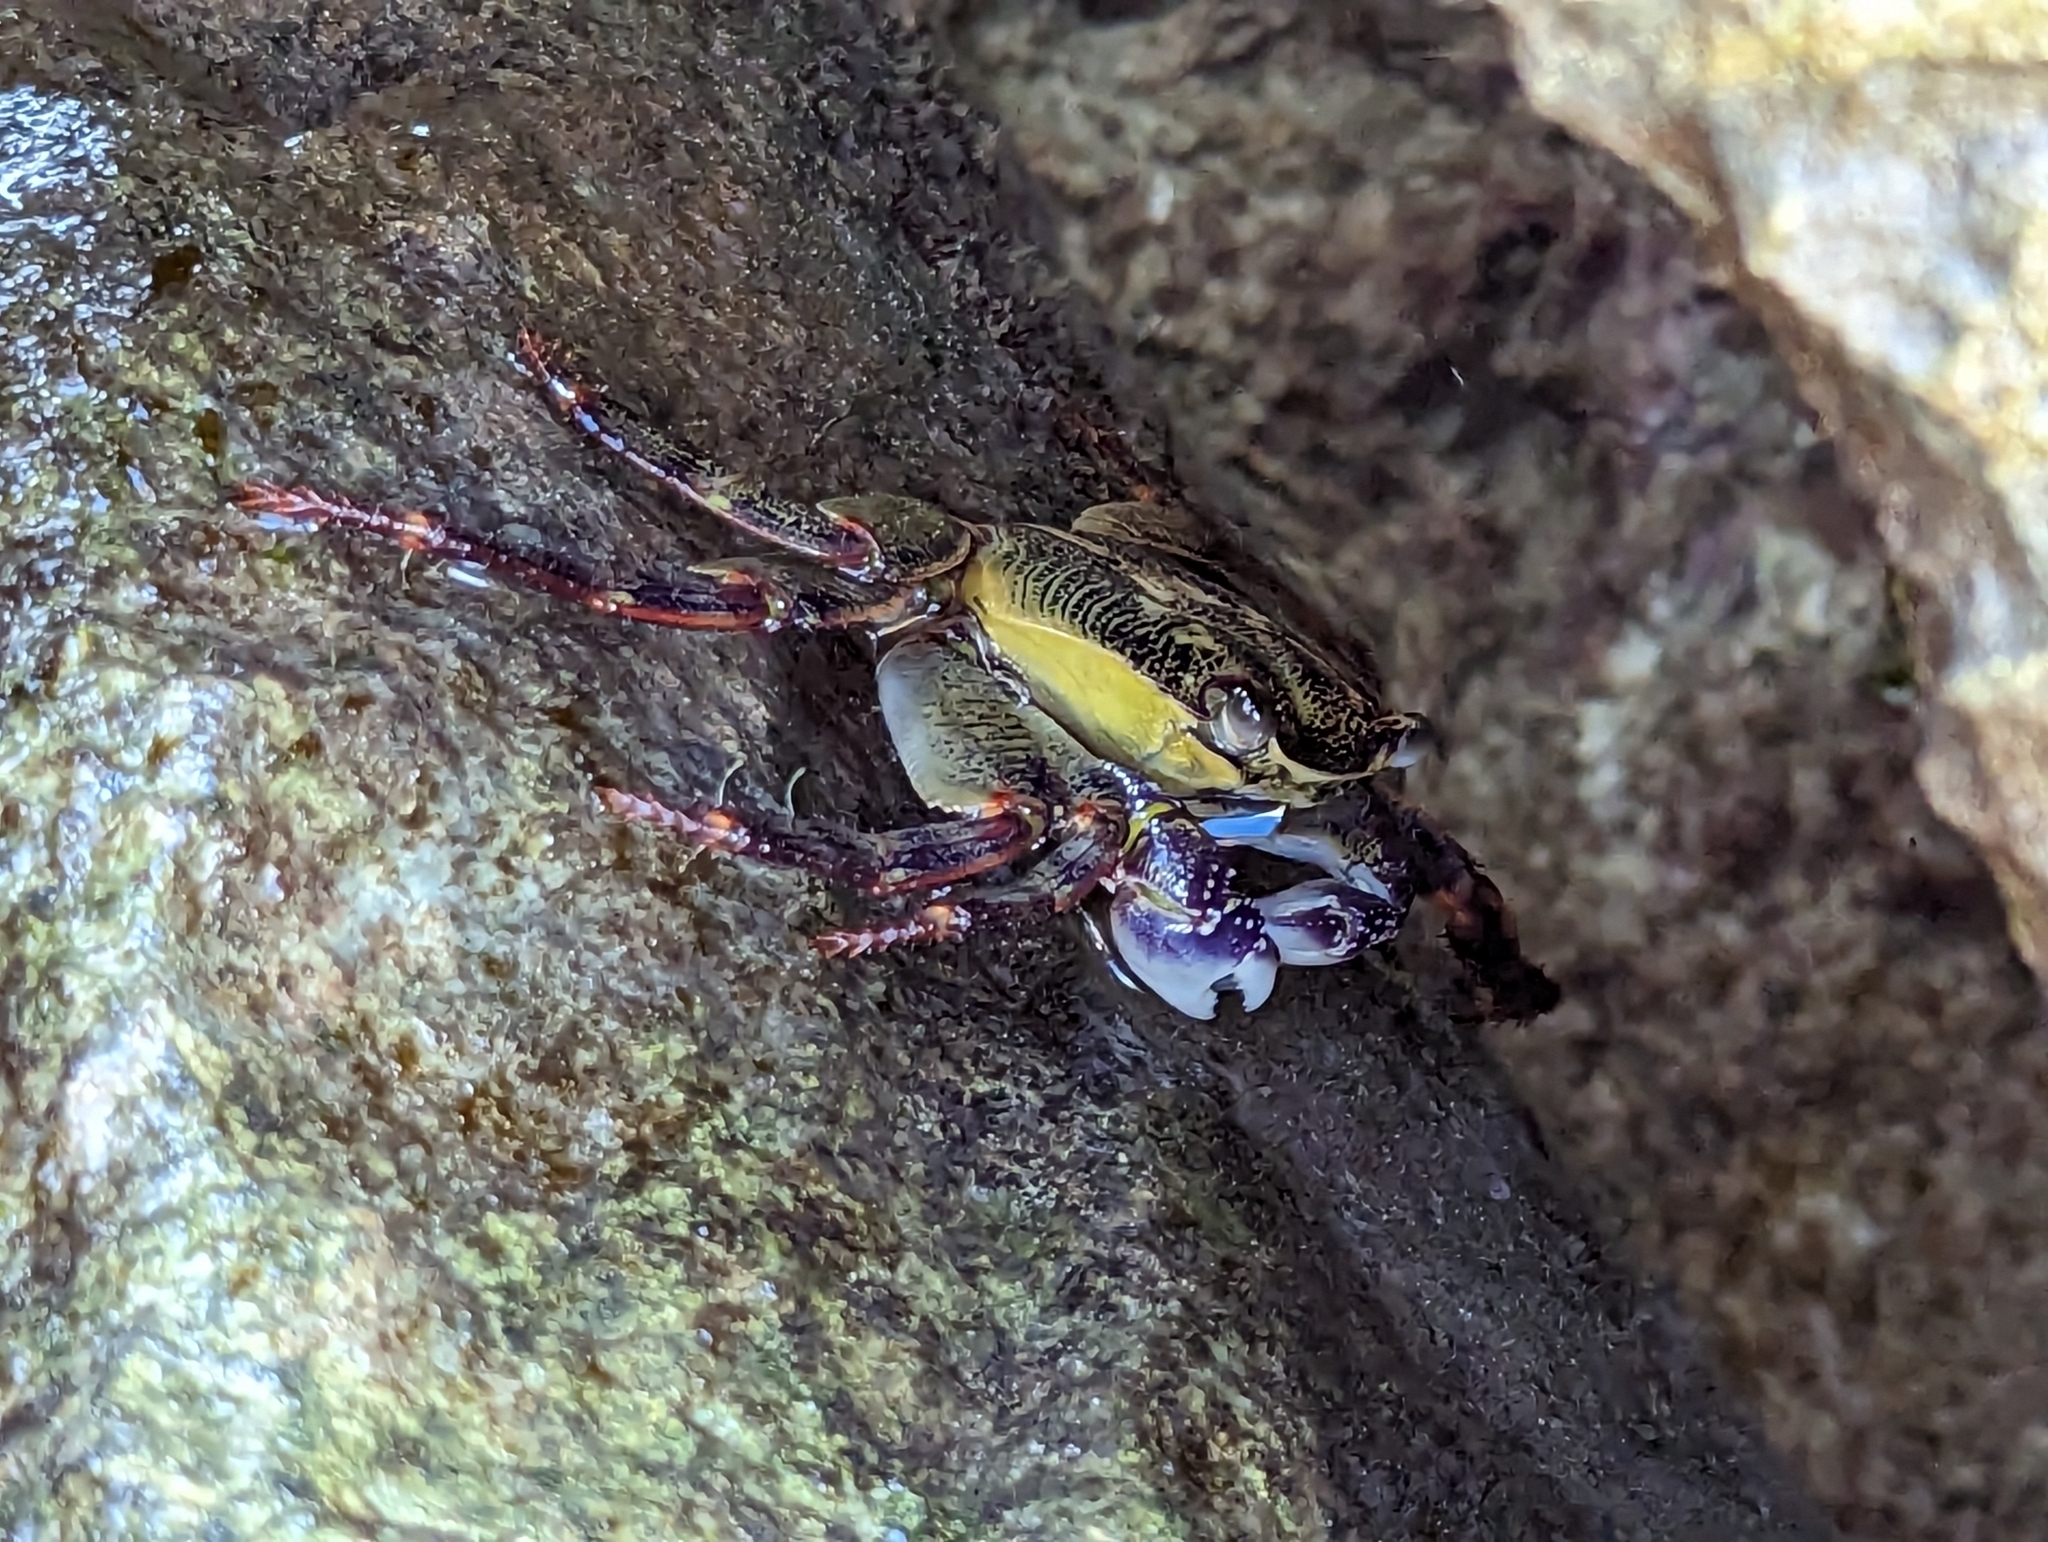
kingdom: Animalia
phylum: Arthropoda
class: Malacostraca
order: Decapoda
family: Grapsidae
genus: Leptograpsus
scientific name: Leptograpsus variegatus
